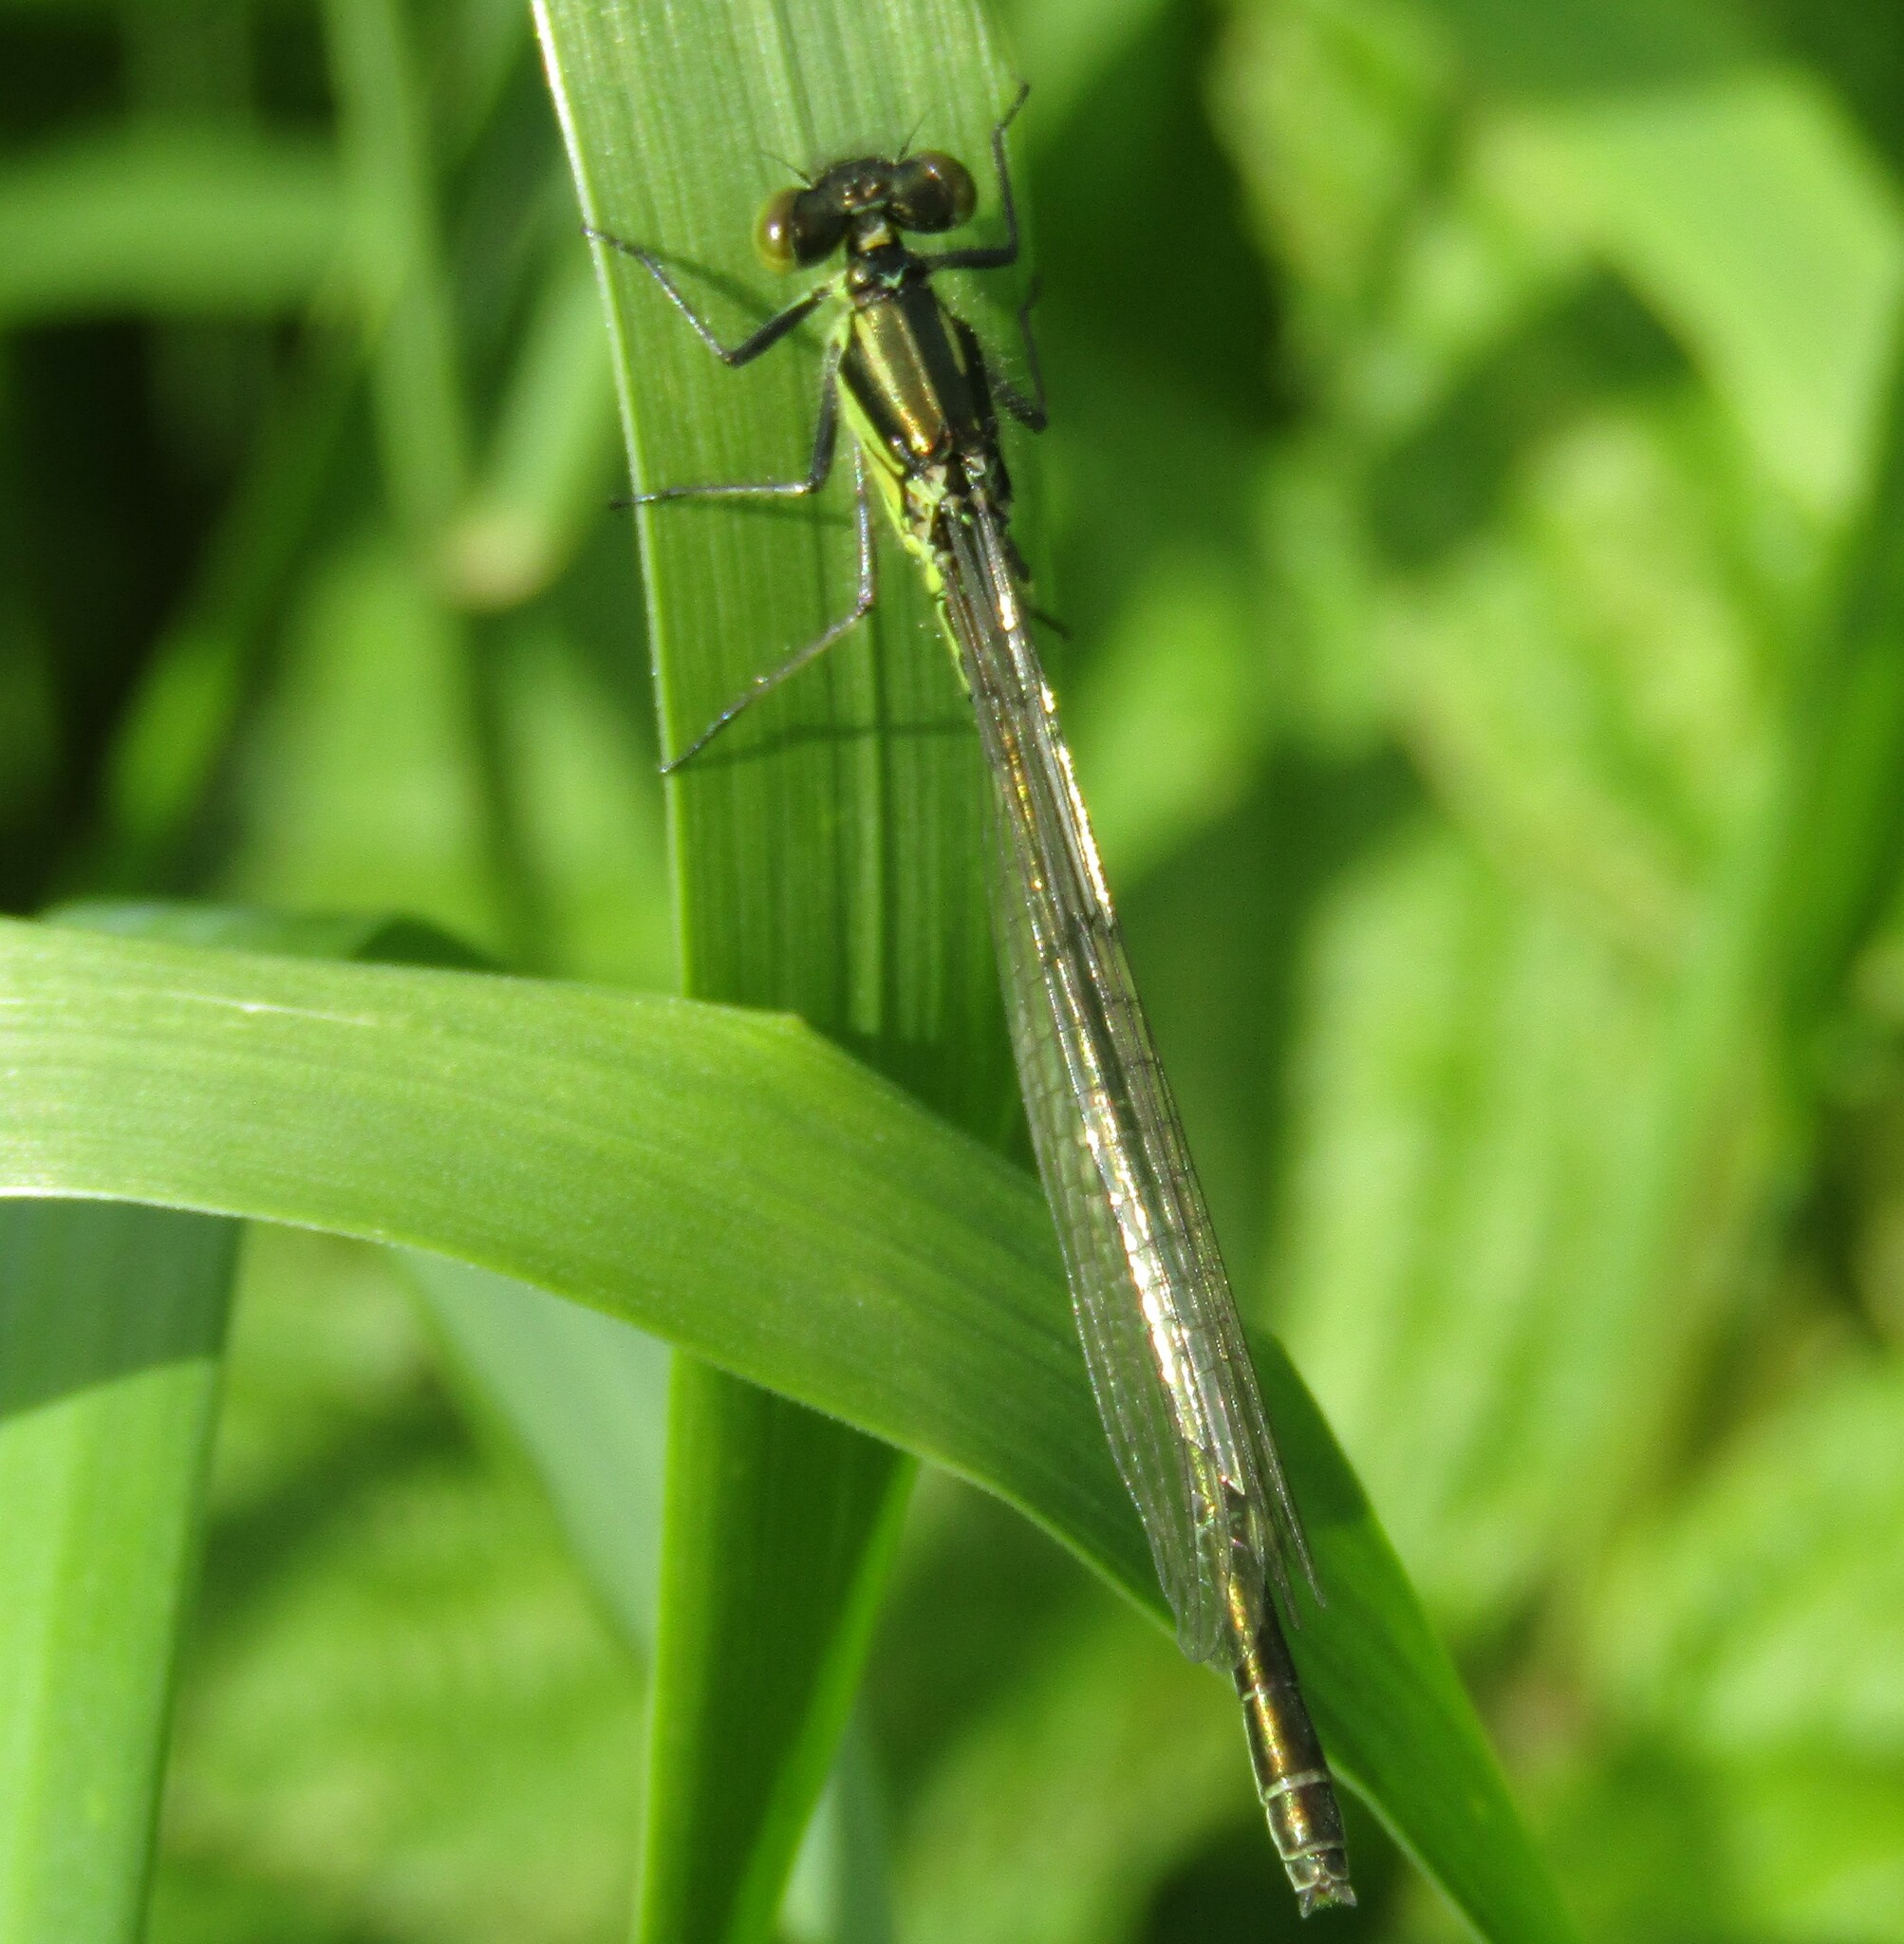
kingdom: Animalia
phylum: Arthropoda
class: Insecta
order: Odonata
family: Coenagrionidae
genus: Erythromma
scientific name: Erythromma najas
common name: Red-eyed damselfly
